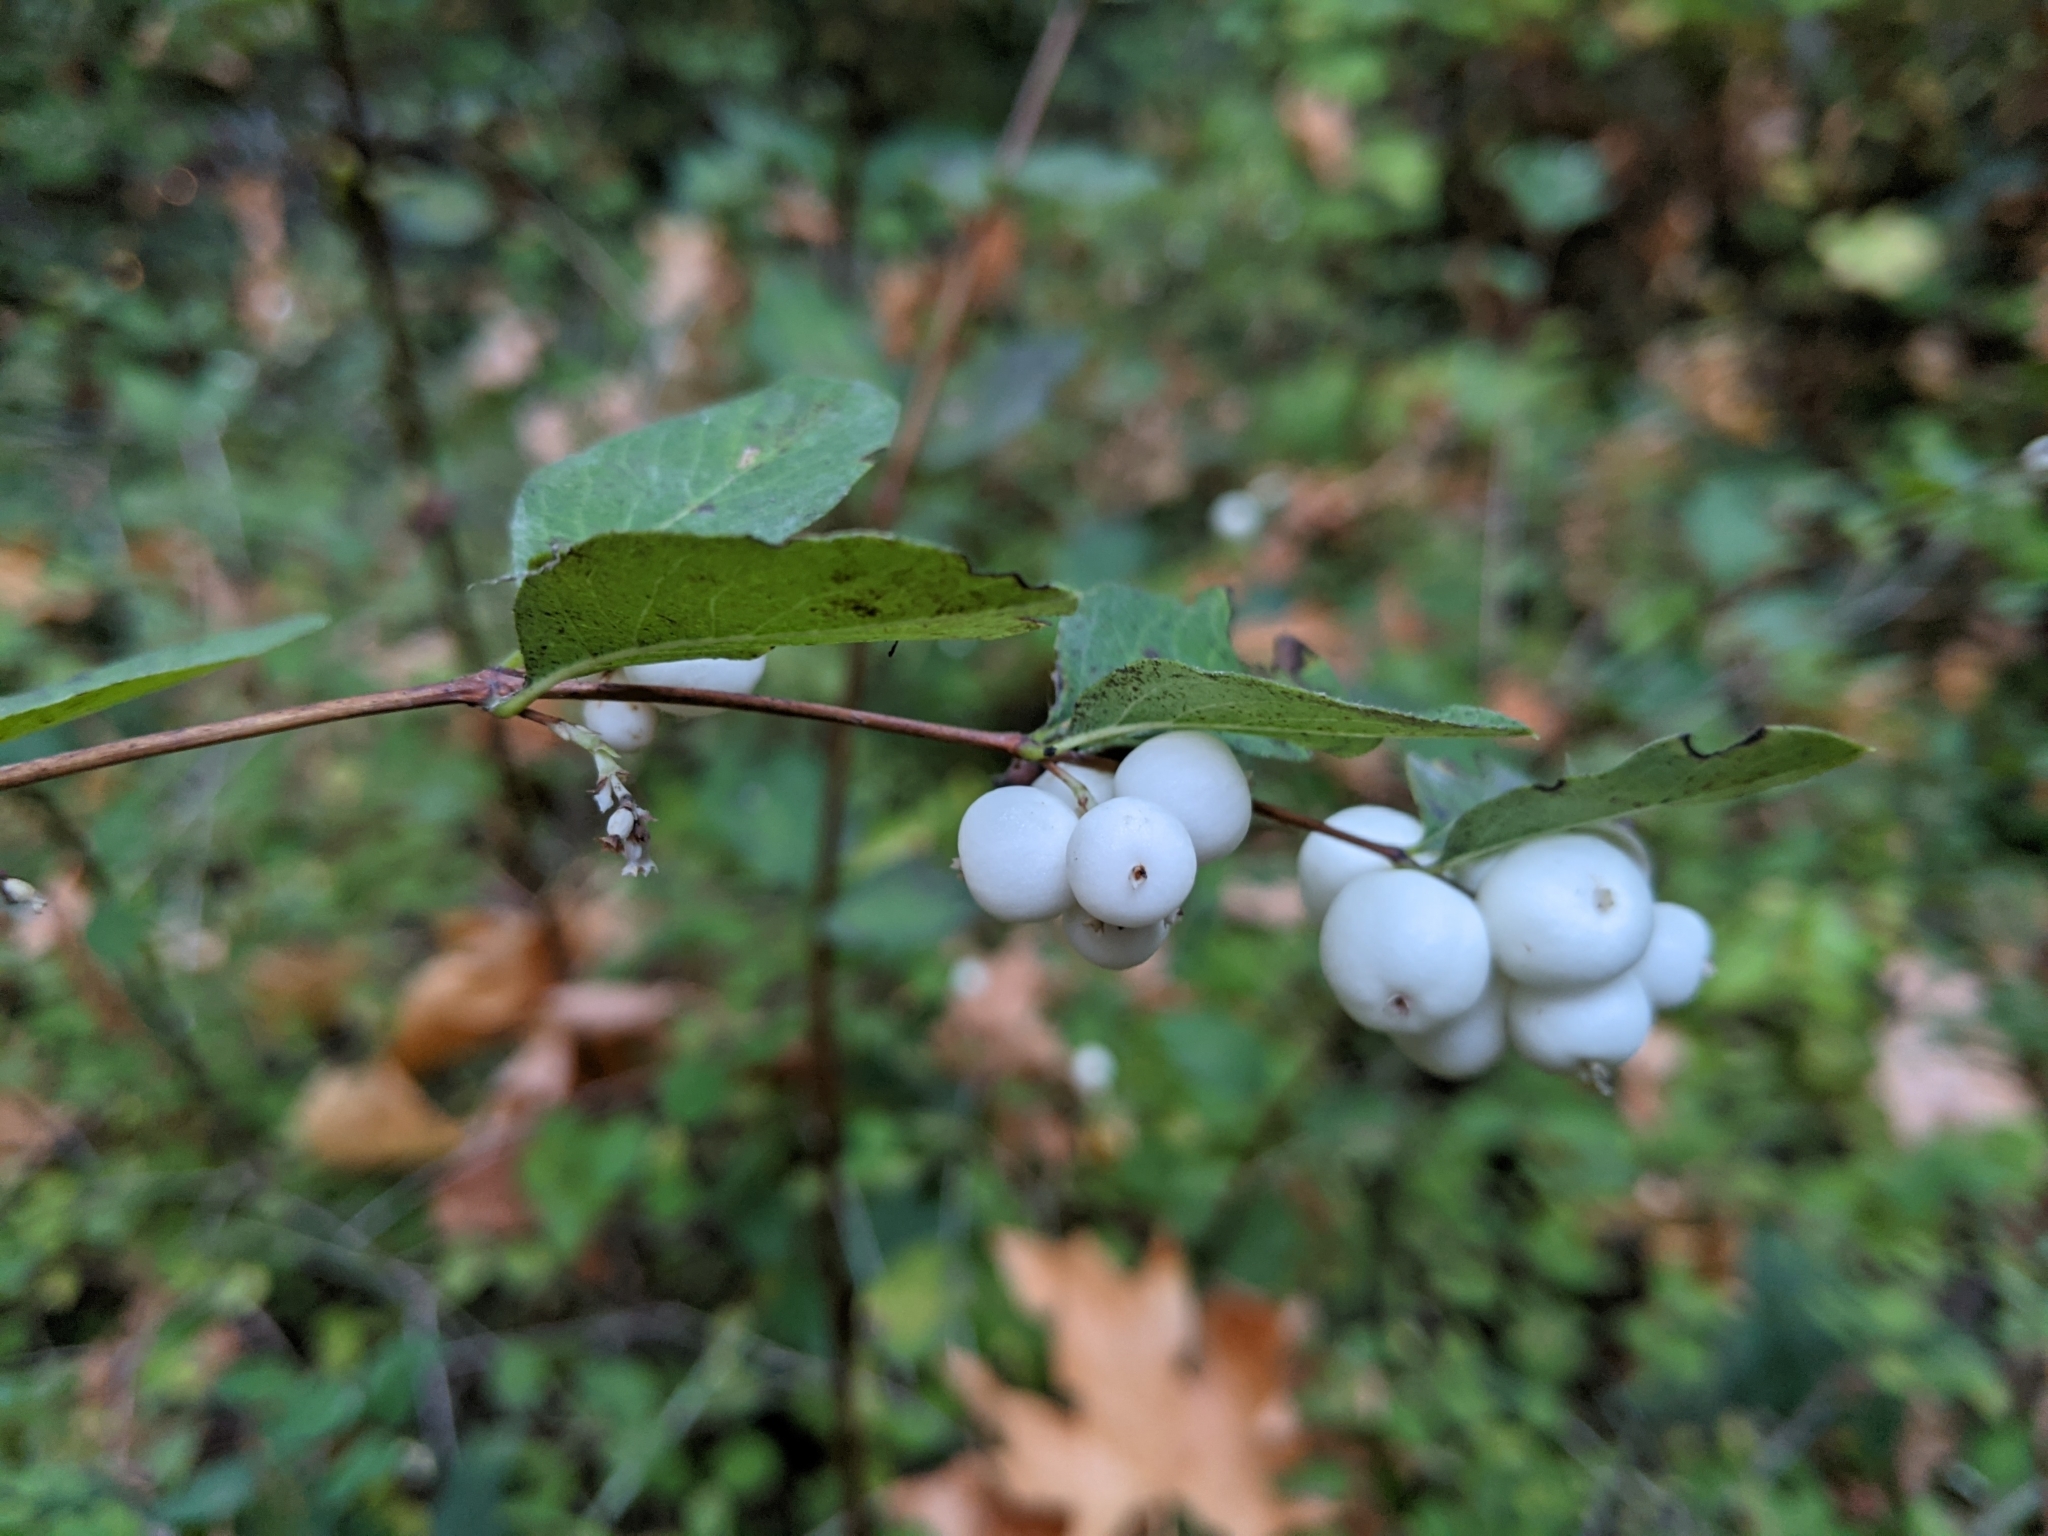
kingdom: Plantae
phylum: Tracheophyta
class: Magnoliopsida
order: Dipsacales
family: Caprifoliaceae
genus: Symphoricarpos
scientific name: Symphoricarpos albus
